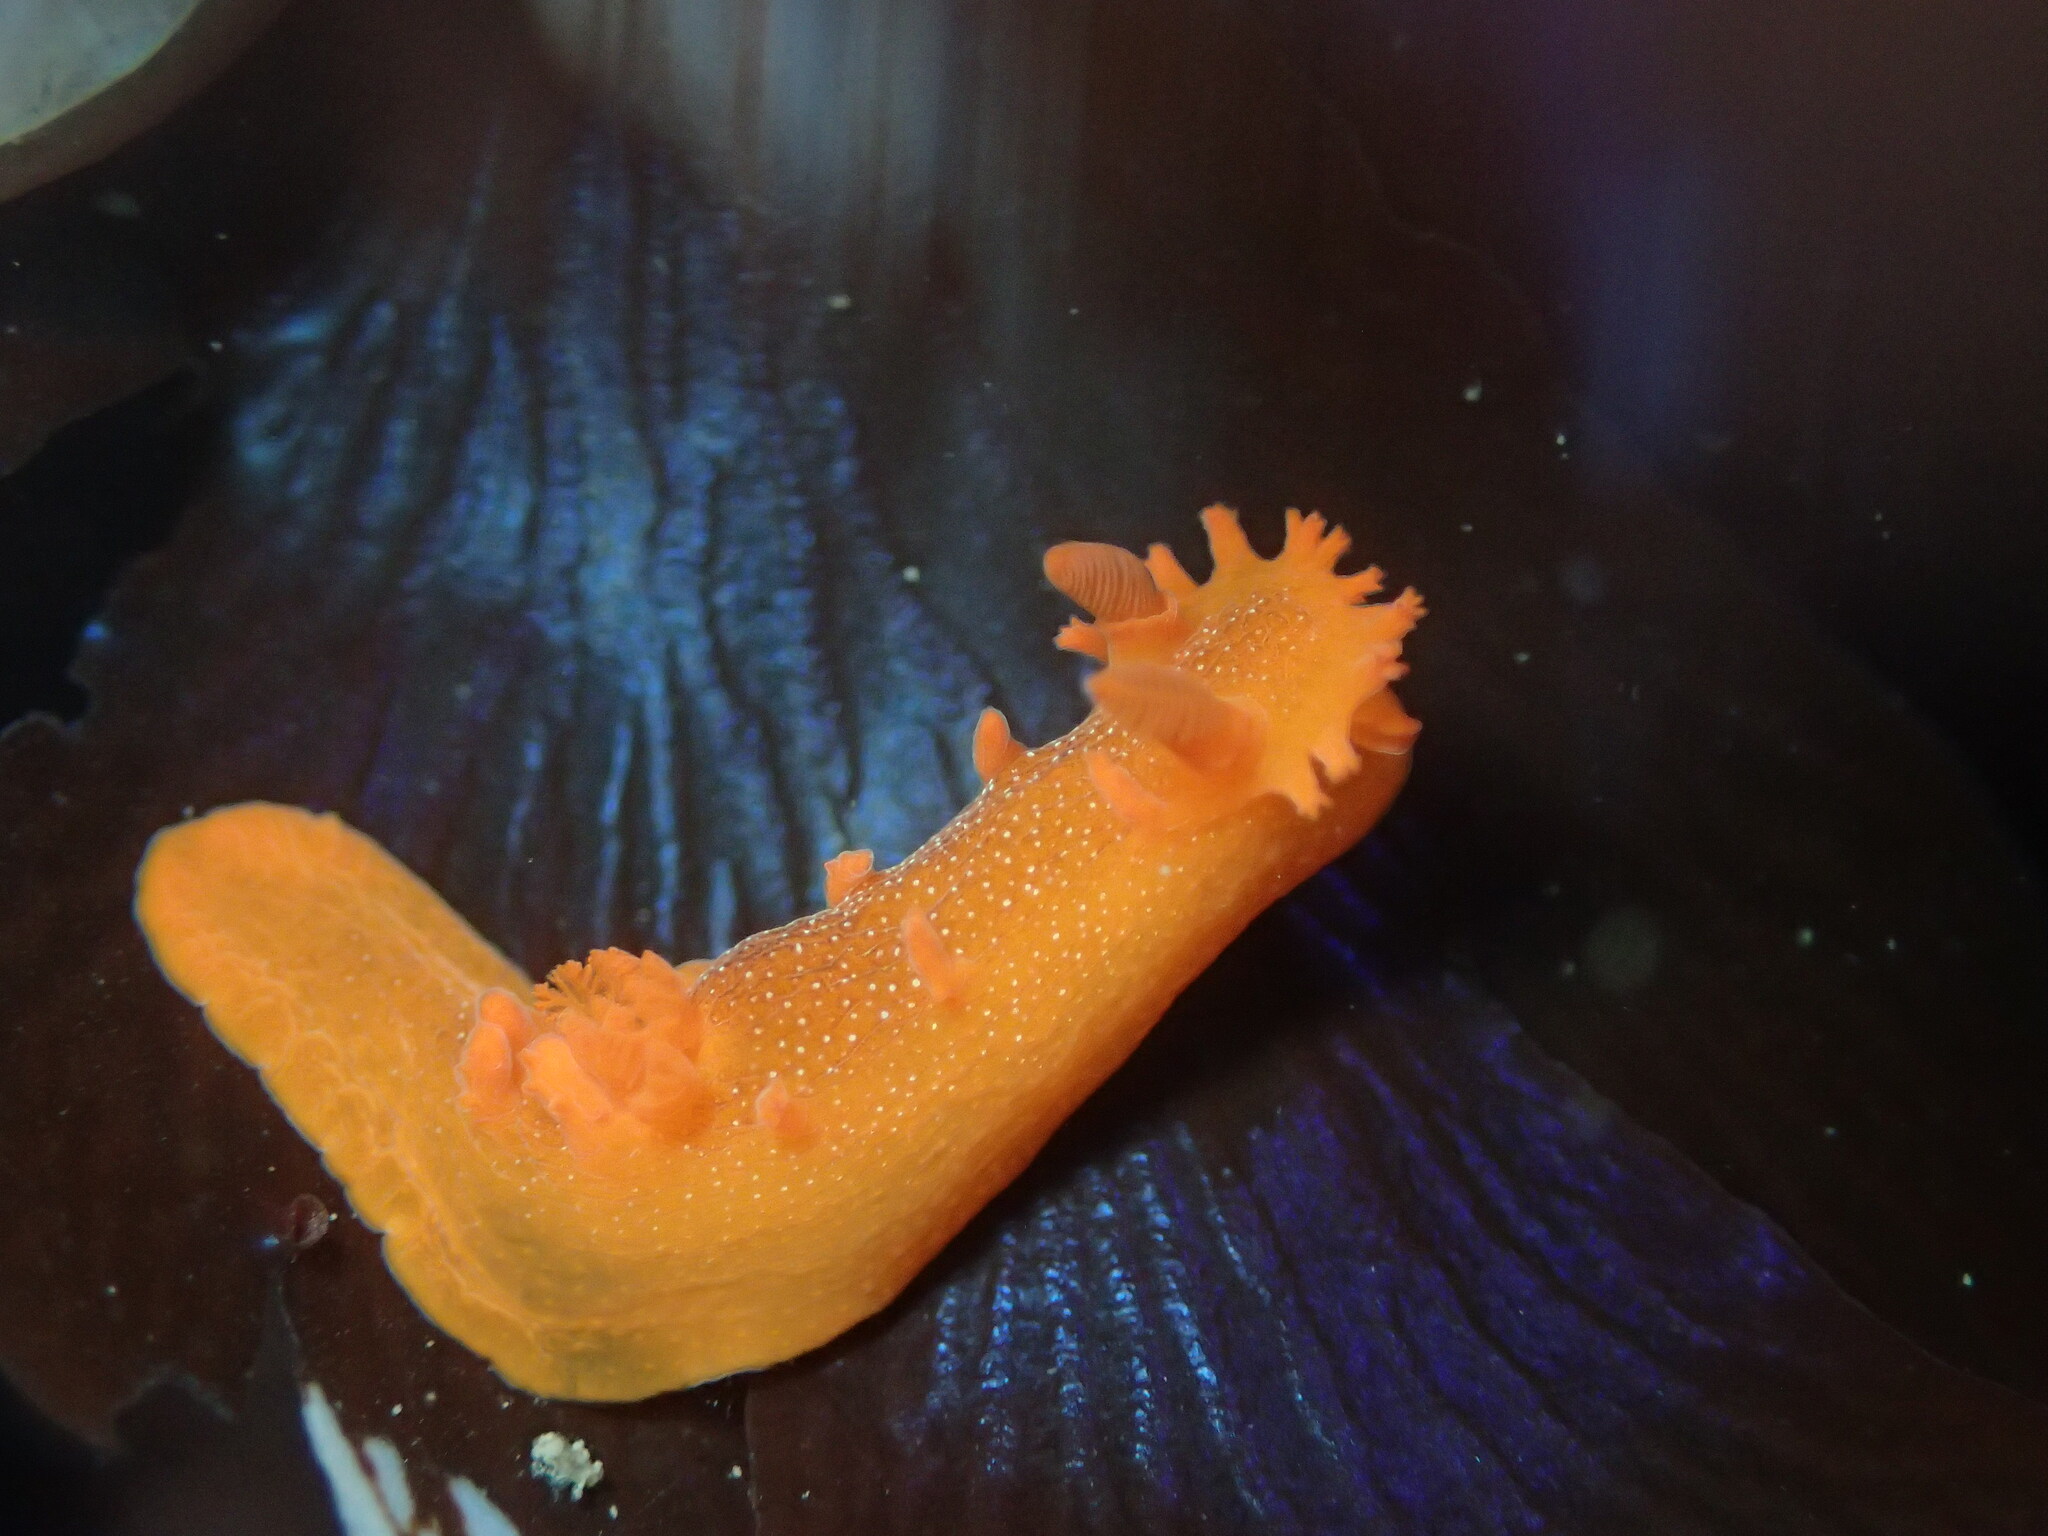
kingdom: Animalia
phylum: Mollusca
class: Gastropoda
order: Nudibranchia
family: Polyceridae
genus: Triopha
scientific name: Triopha maculata
